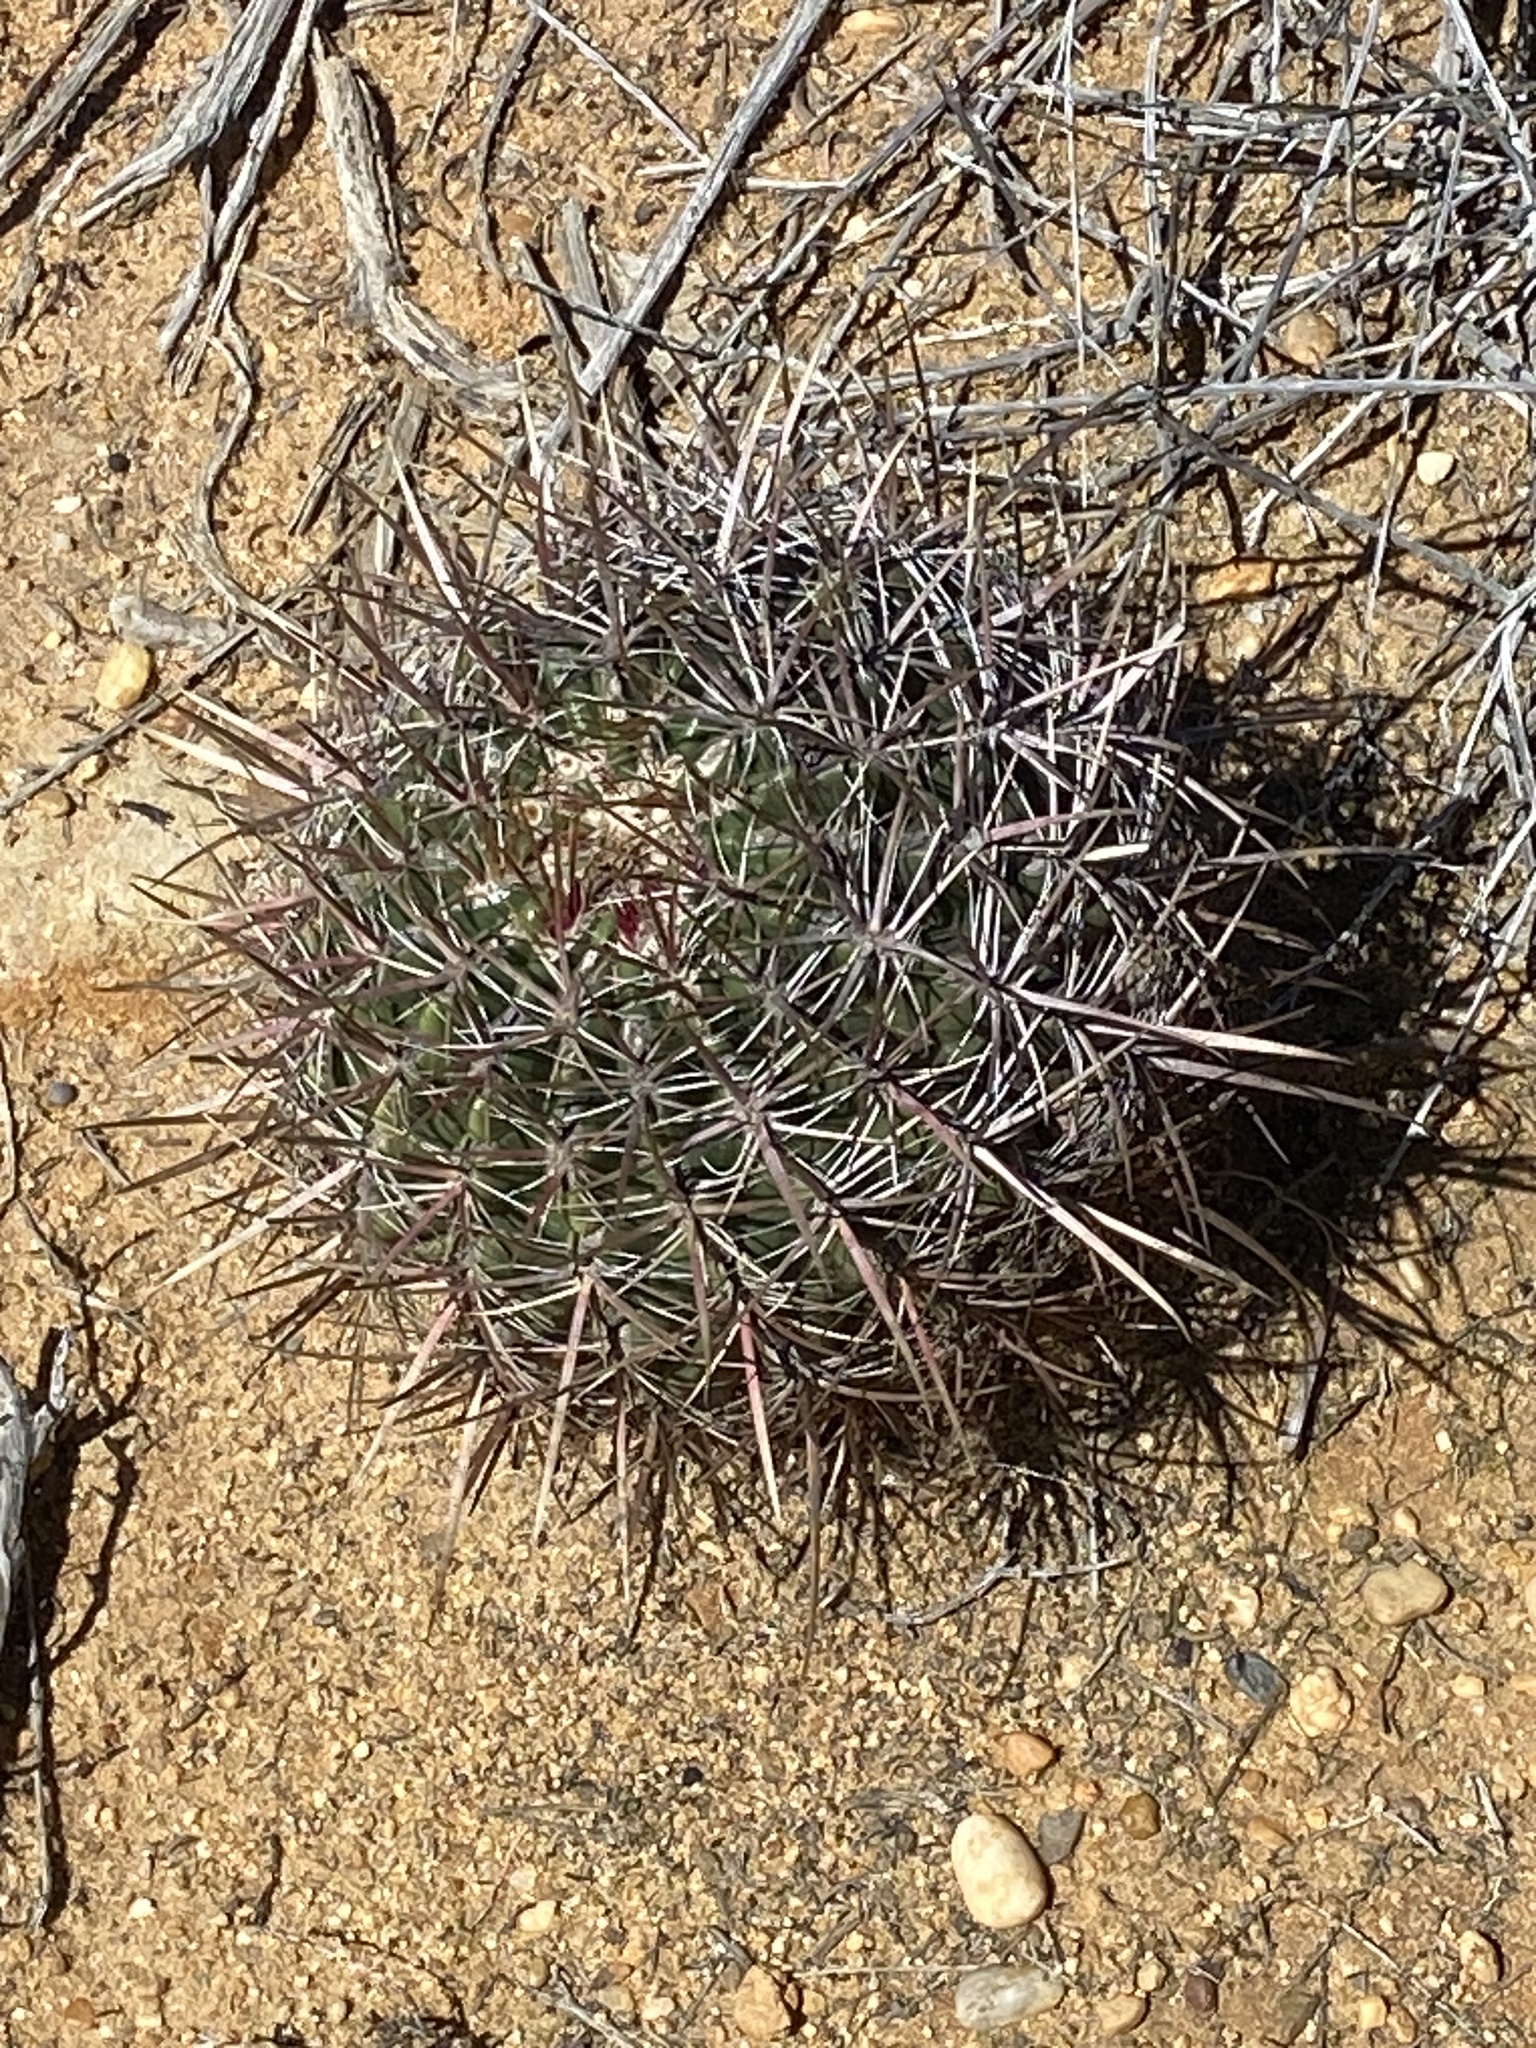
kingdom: Plantae
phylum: Tracheophyta
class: Magnoliopsida
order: Caryophyllales
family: Cactaceae
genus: Ferocactus
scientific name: Ferocactus viridescens
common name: San diego barrel cactus
